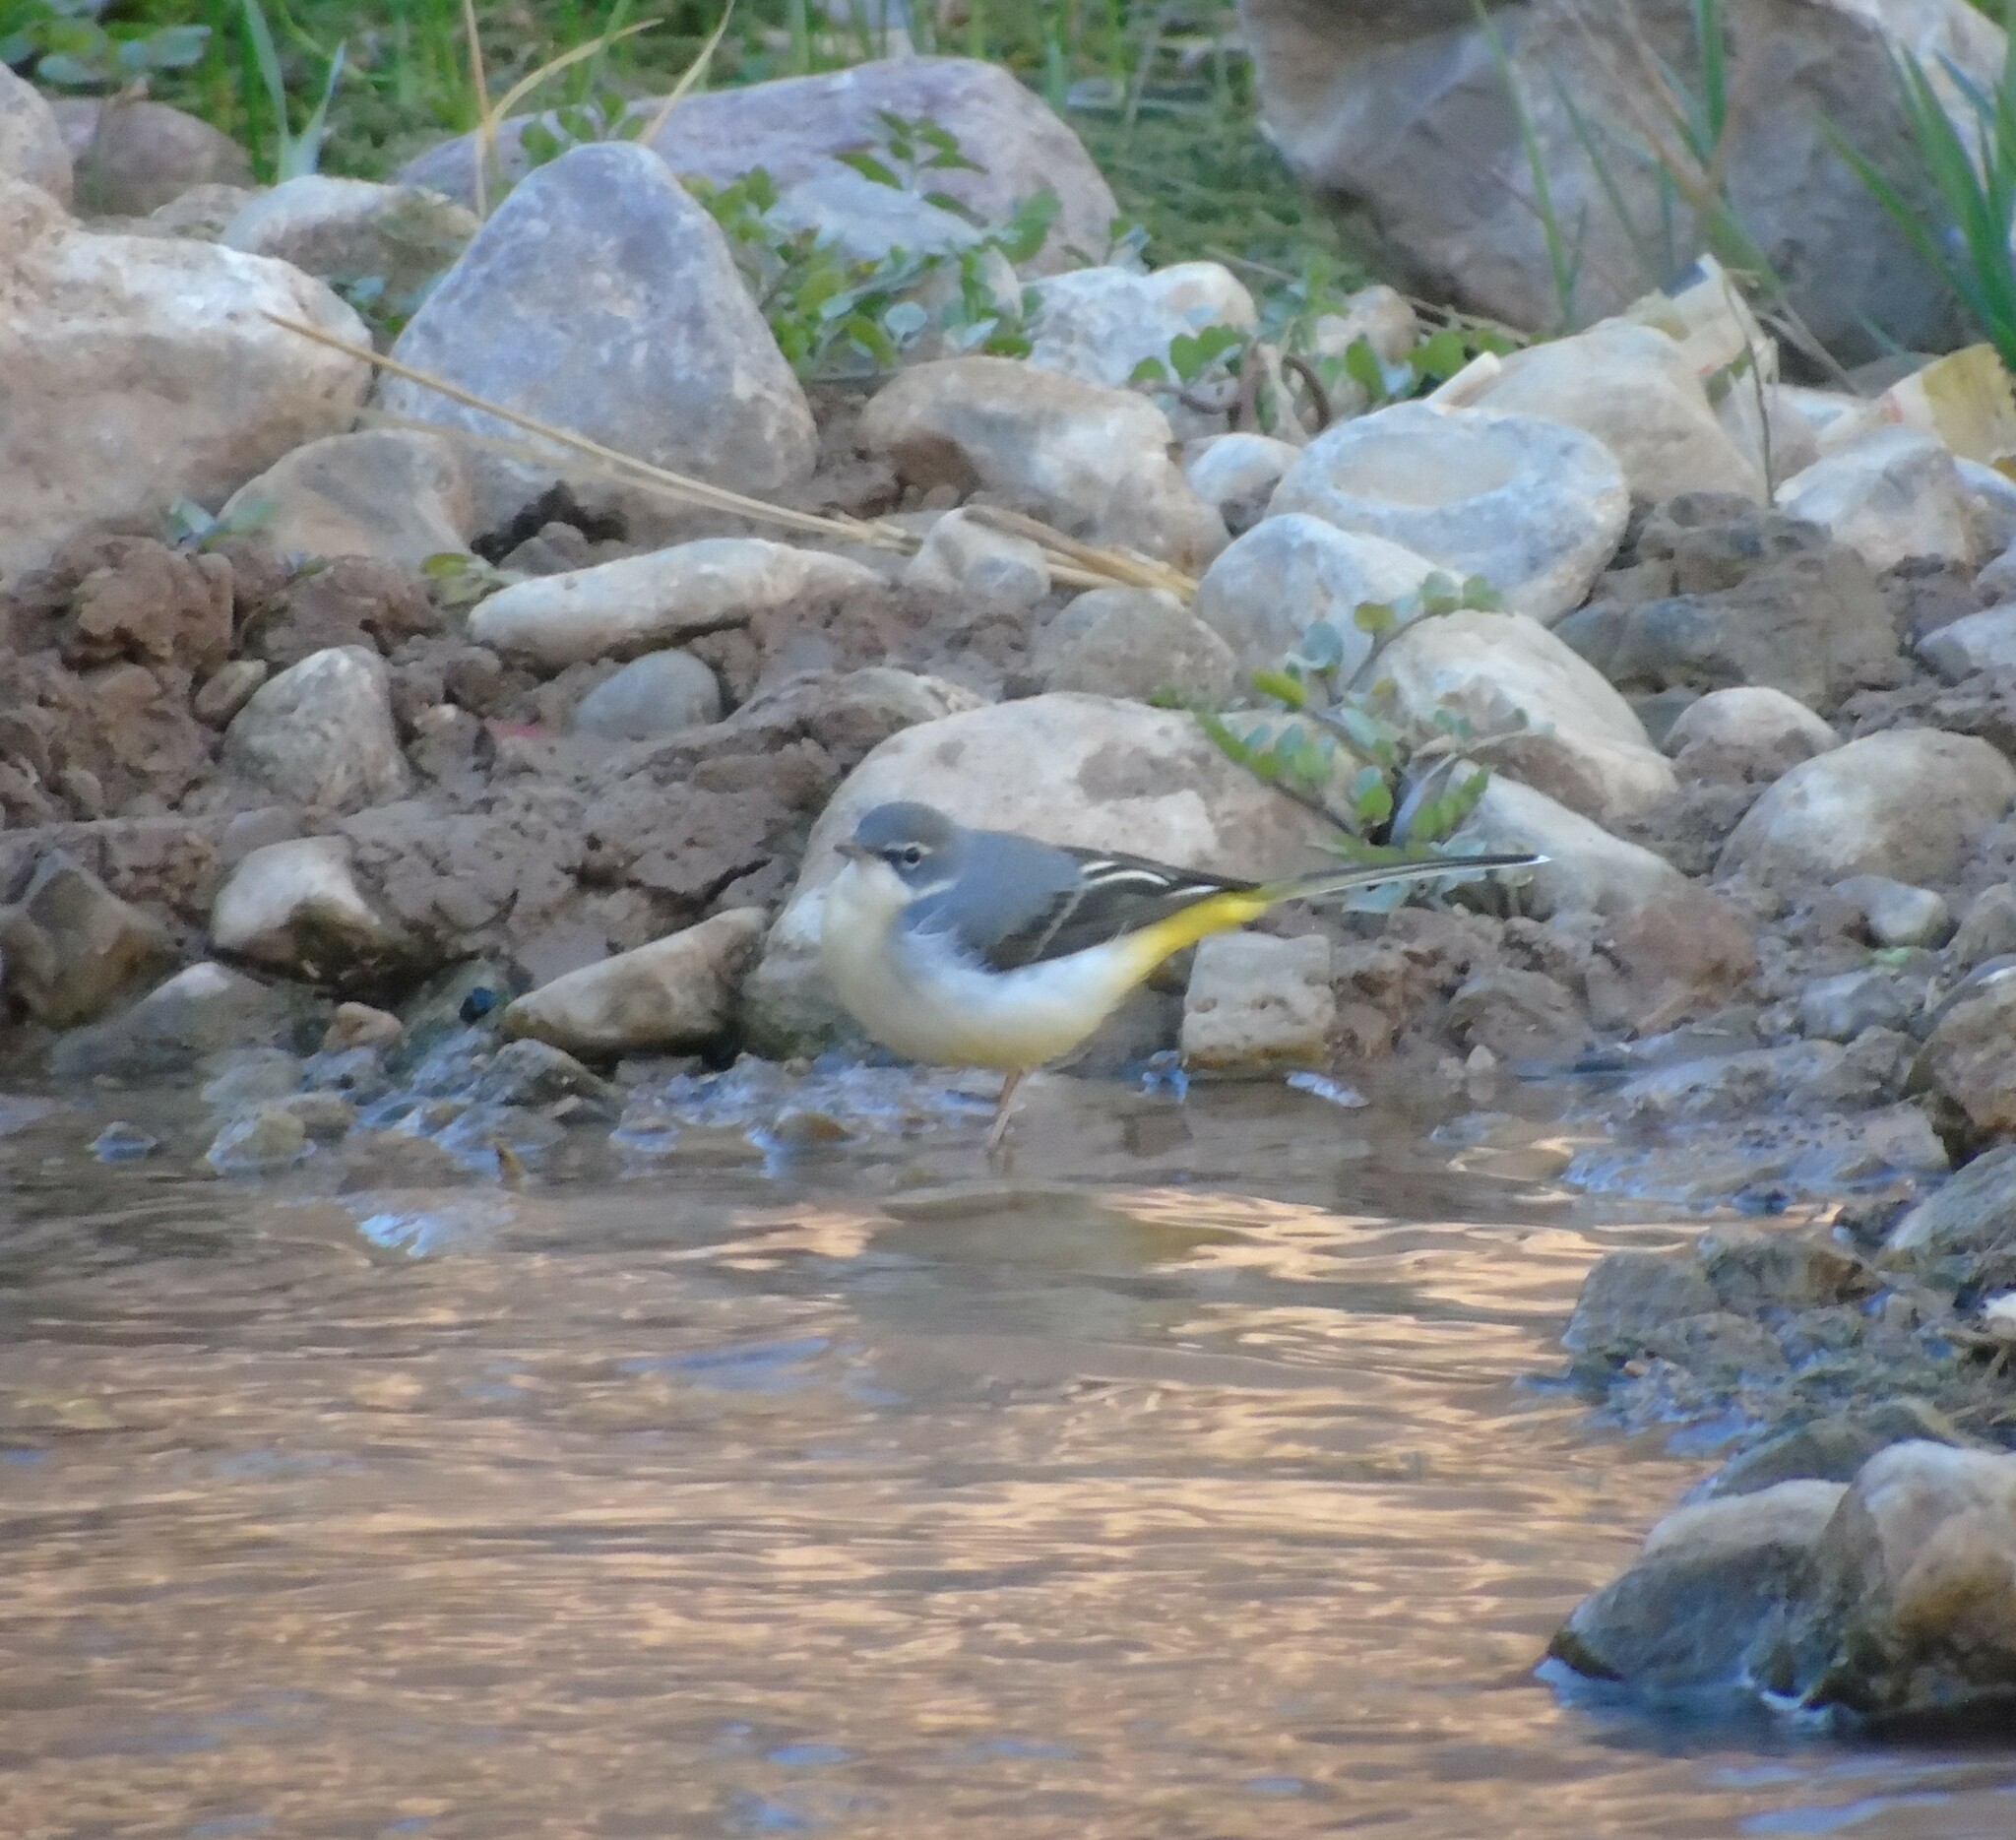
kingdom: Animalia
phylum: Chordata
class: Aves
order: Passeriformes
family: Motacillidae
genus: Motacilla
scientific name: Motacilla cinerea
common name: Grey wagtail
